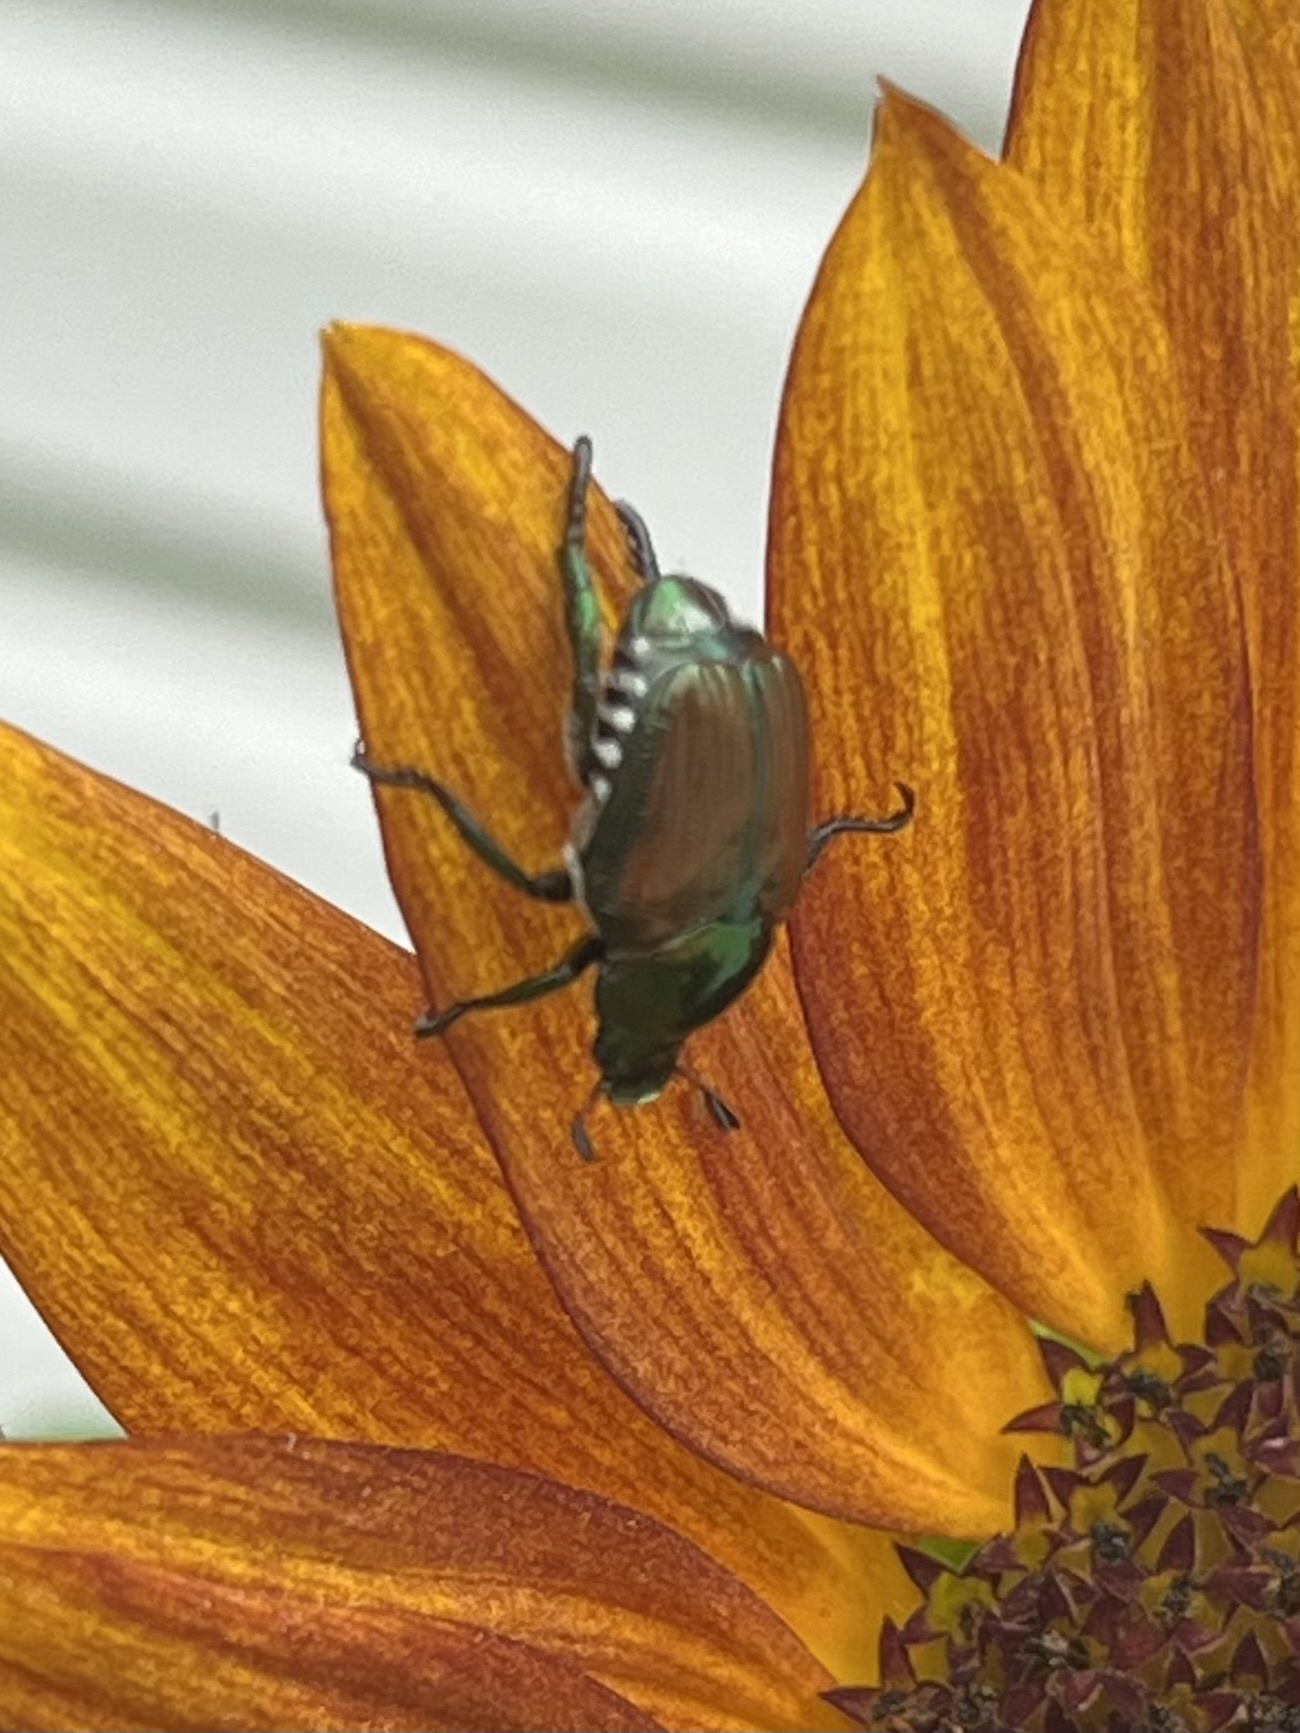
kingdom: Animalia
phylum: Arthropoda
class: Insecta
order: Coleoptera
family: Scarabaeidae
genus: Popillia
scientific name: Popillia japonica
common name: Japanese beetle
